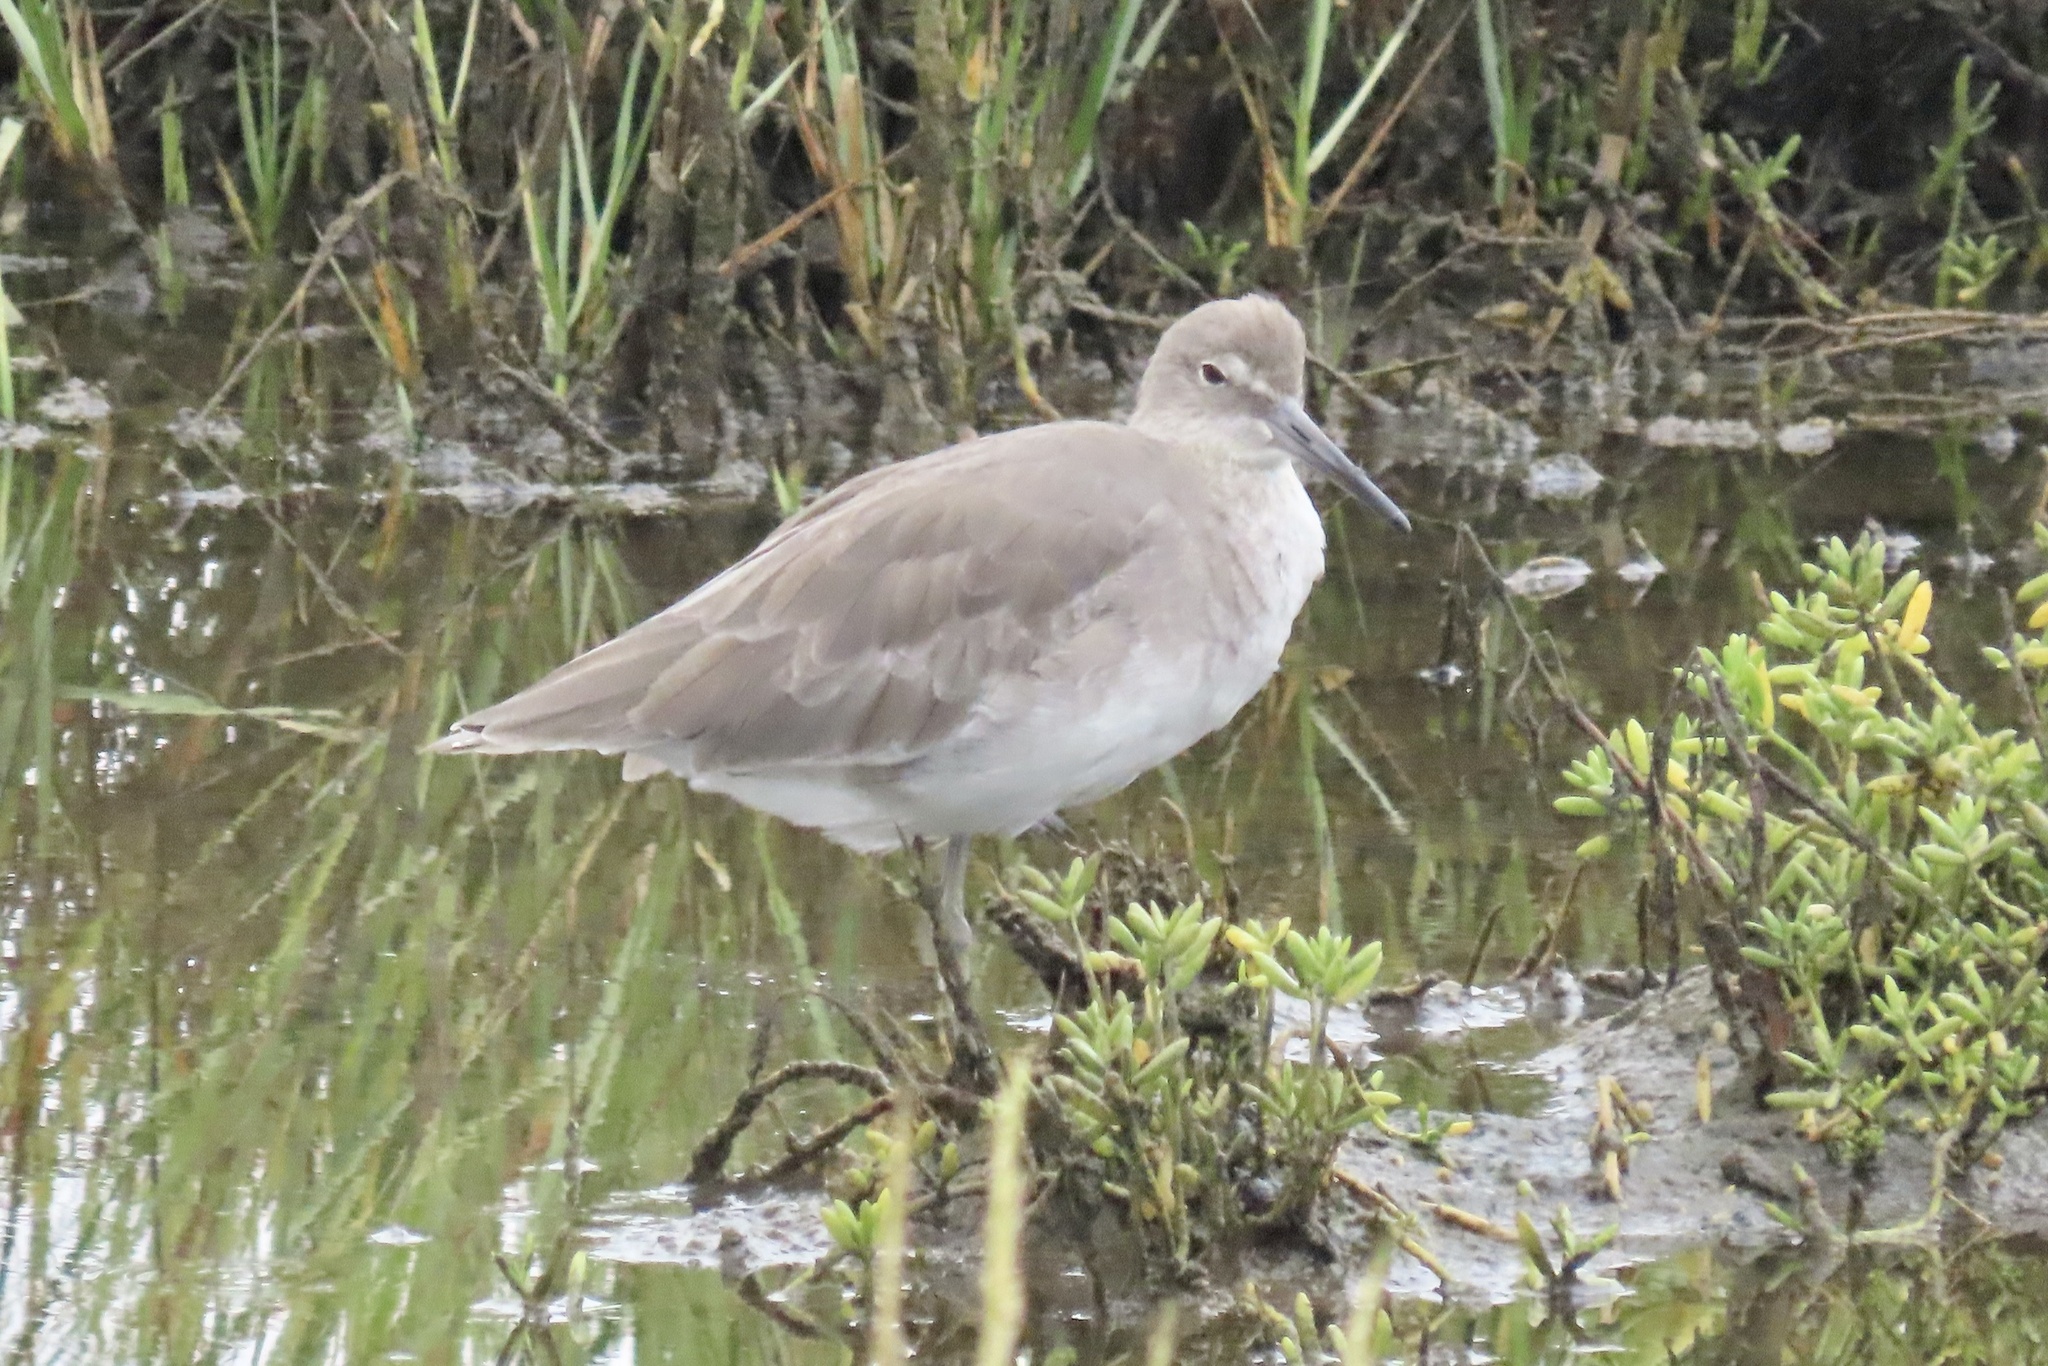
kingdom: Animalia
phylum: Chordata
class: Aves
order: Charadriiformes
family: Scolopacidae
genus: Tringa
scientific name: Tringa semipalmata
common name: Willet
